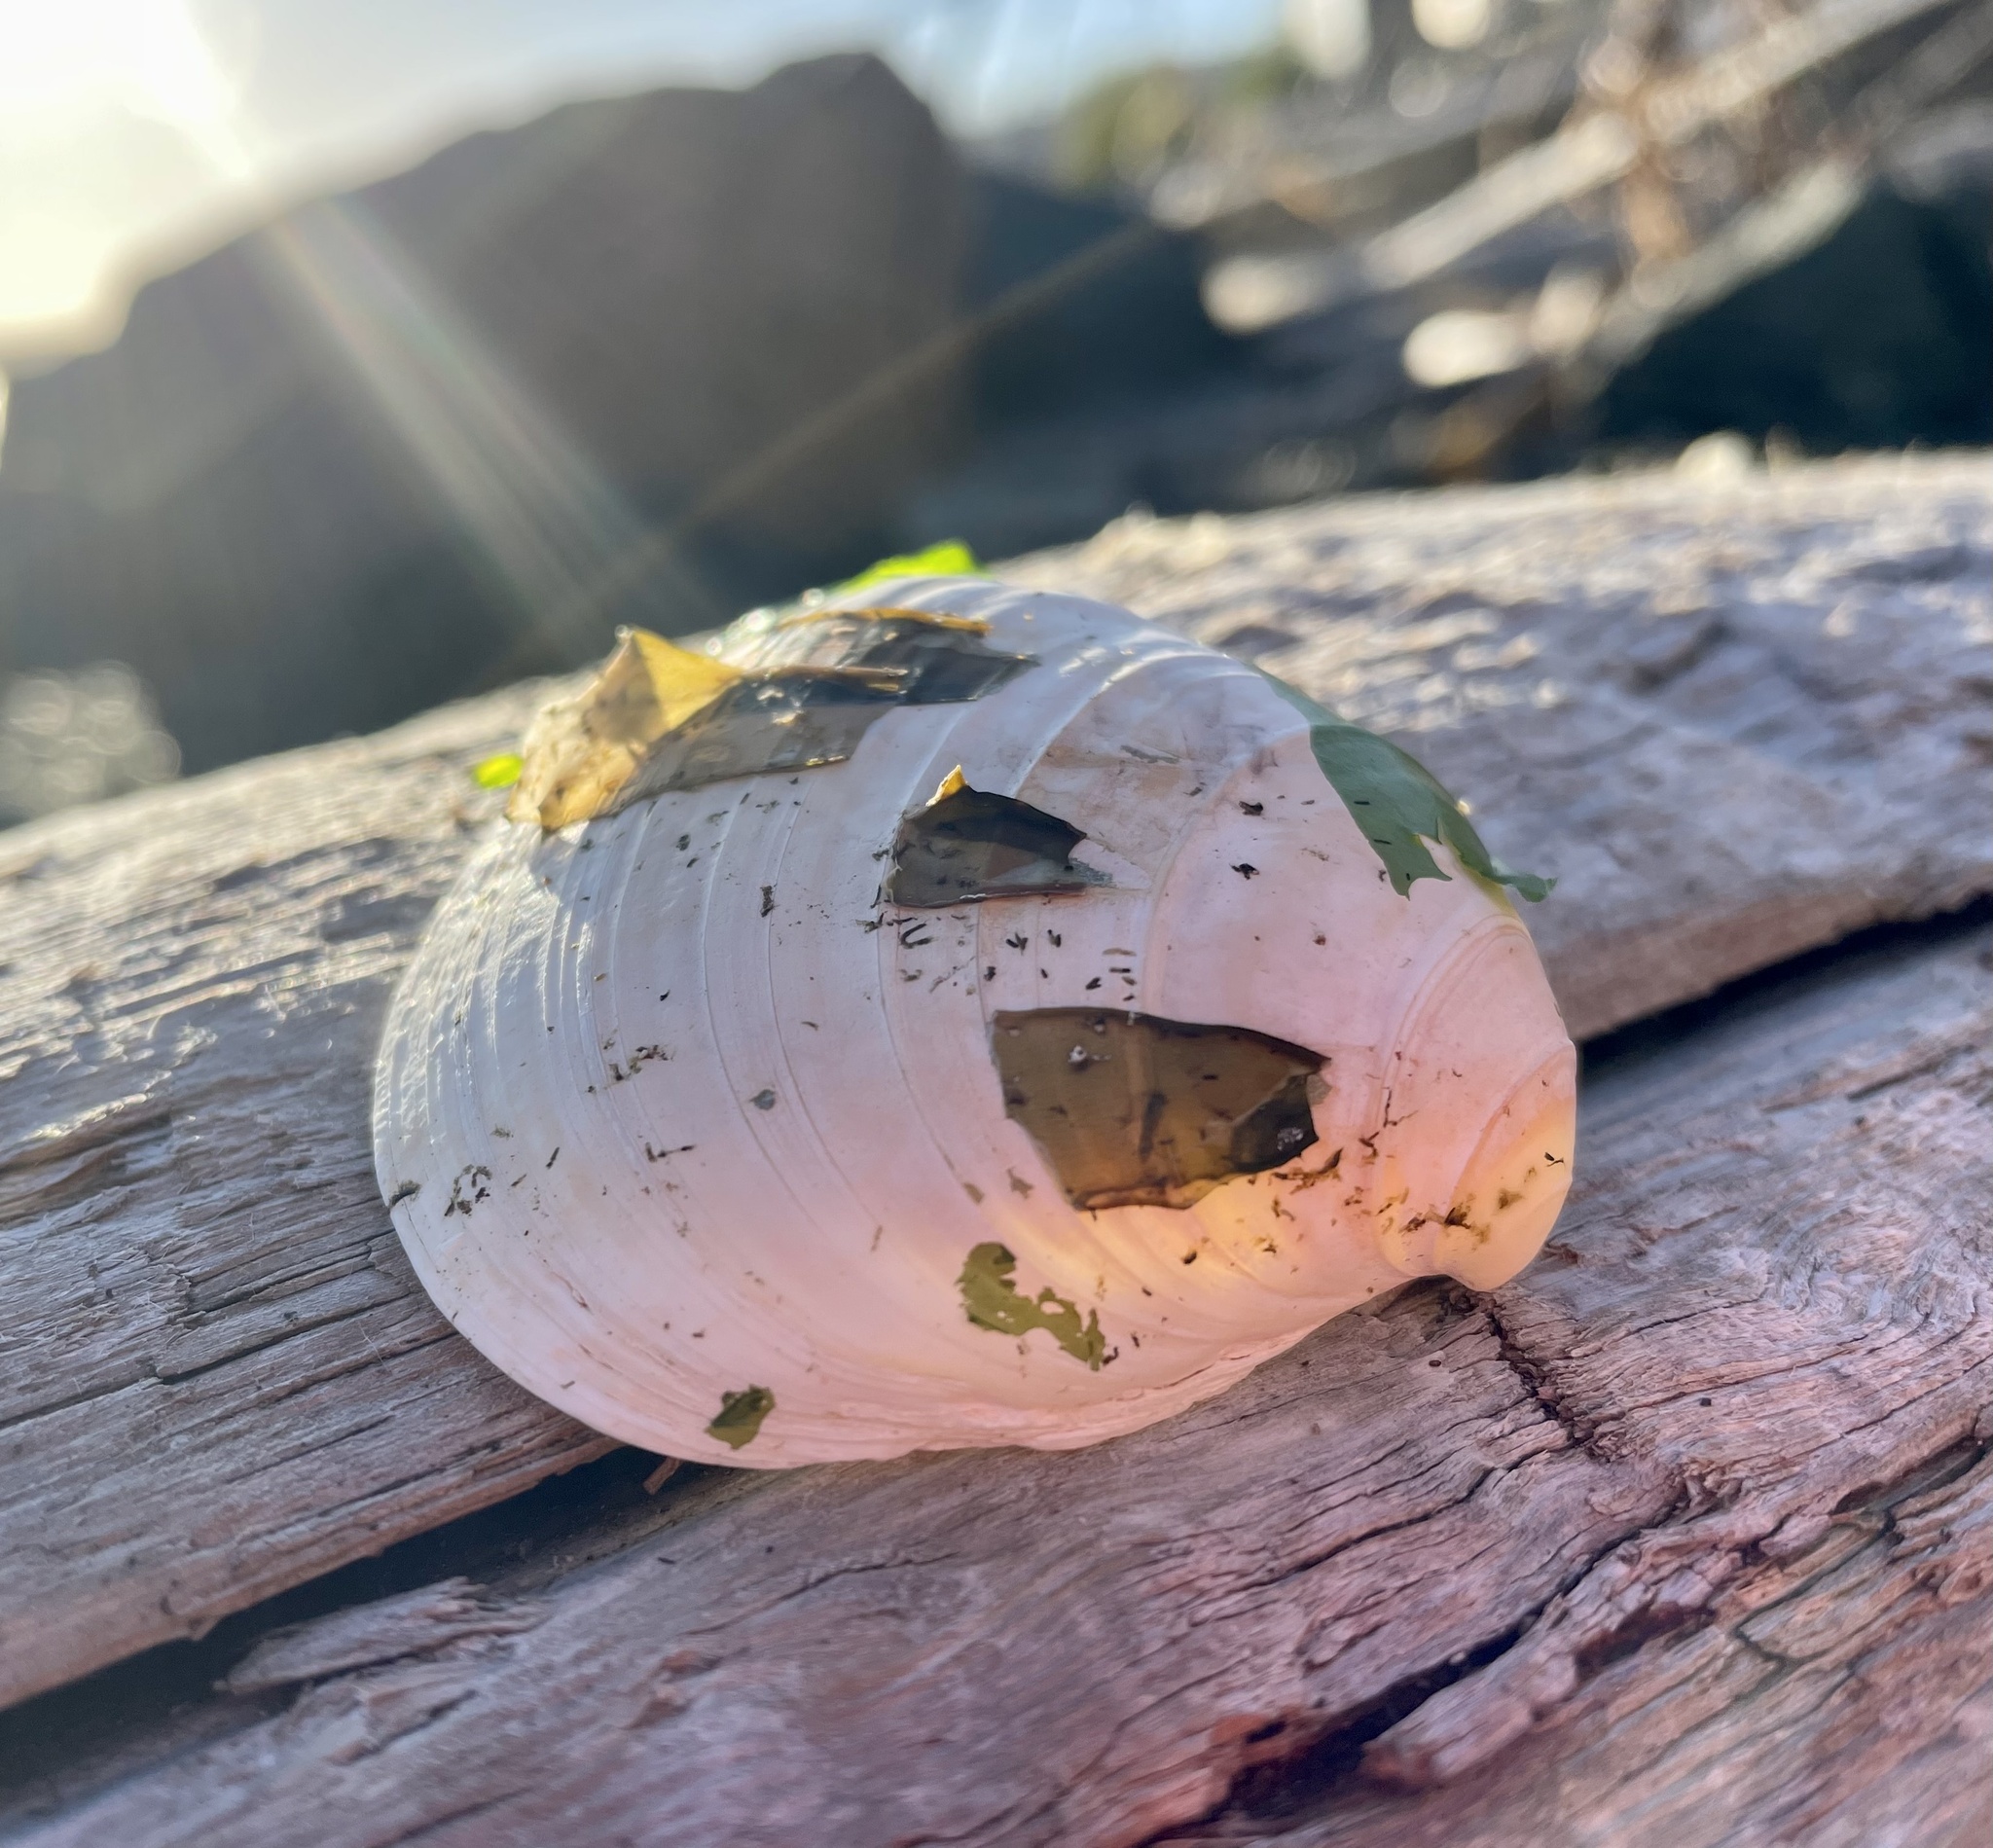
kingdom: Animalia
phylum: Mollusca
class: Bivalvia
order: Venerida
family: Veneridae
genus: Saxidomus
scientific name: Saxidomus gigantea
